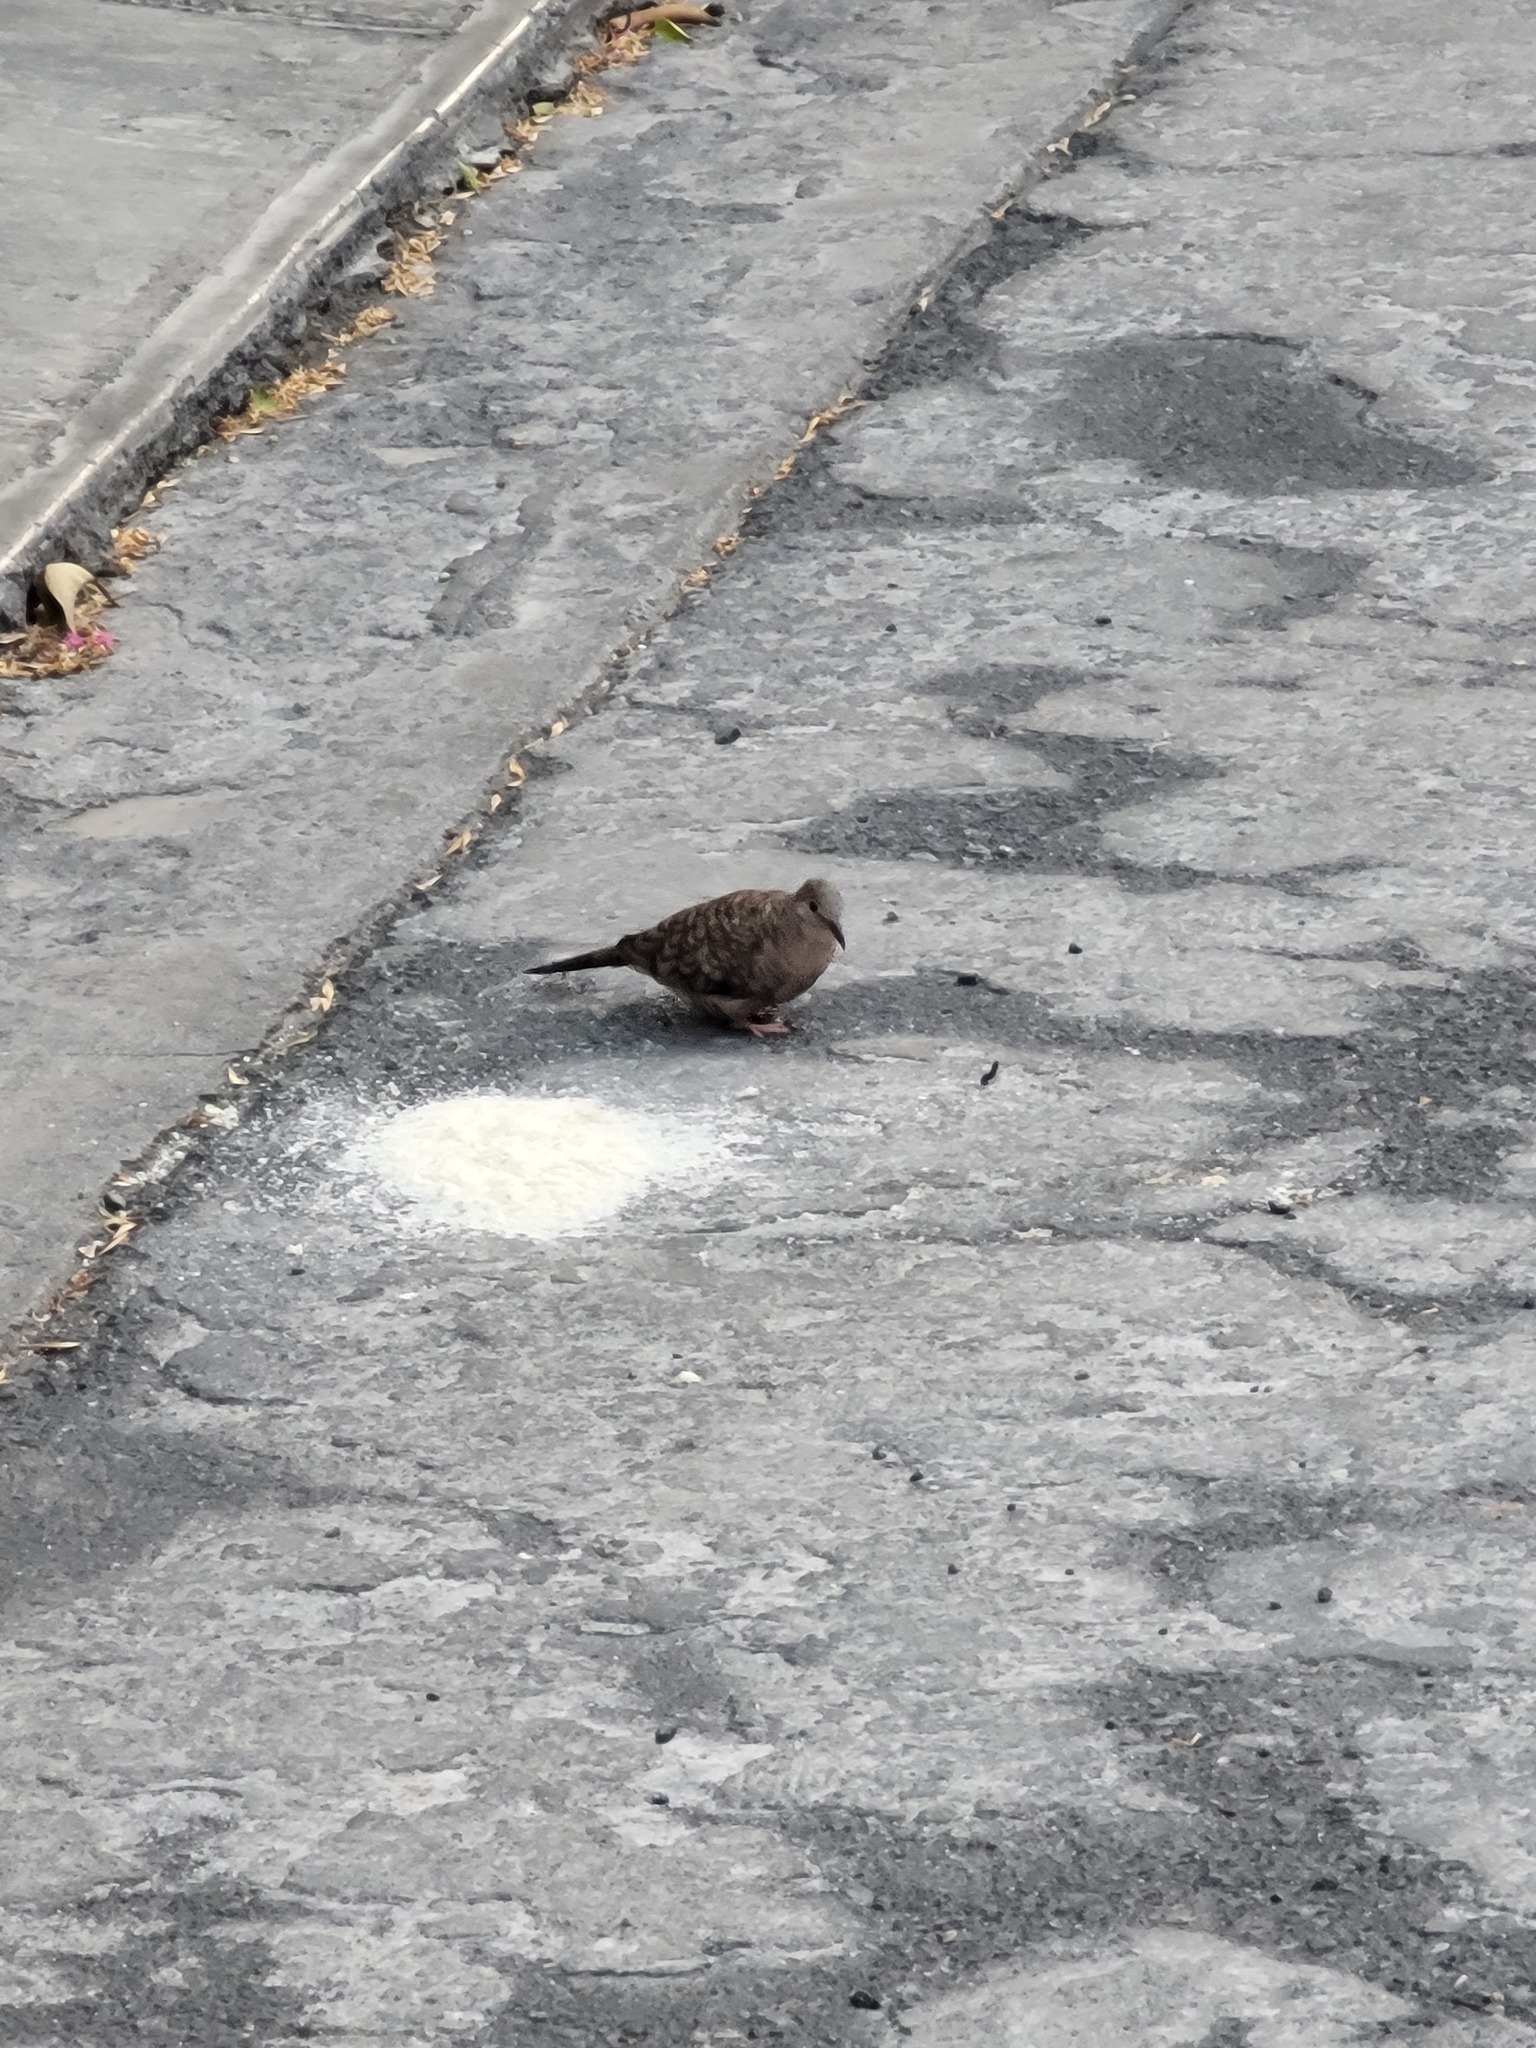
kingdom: Animalia
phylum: Chordata
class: Aves
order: Columbiformes
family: Columbidae
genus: Columbina
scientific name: Columbina inca
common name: Inca dove
